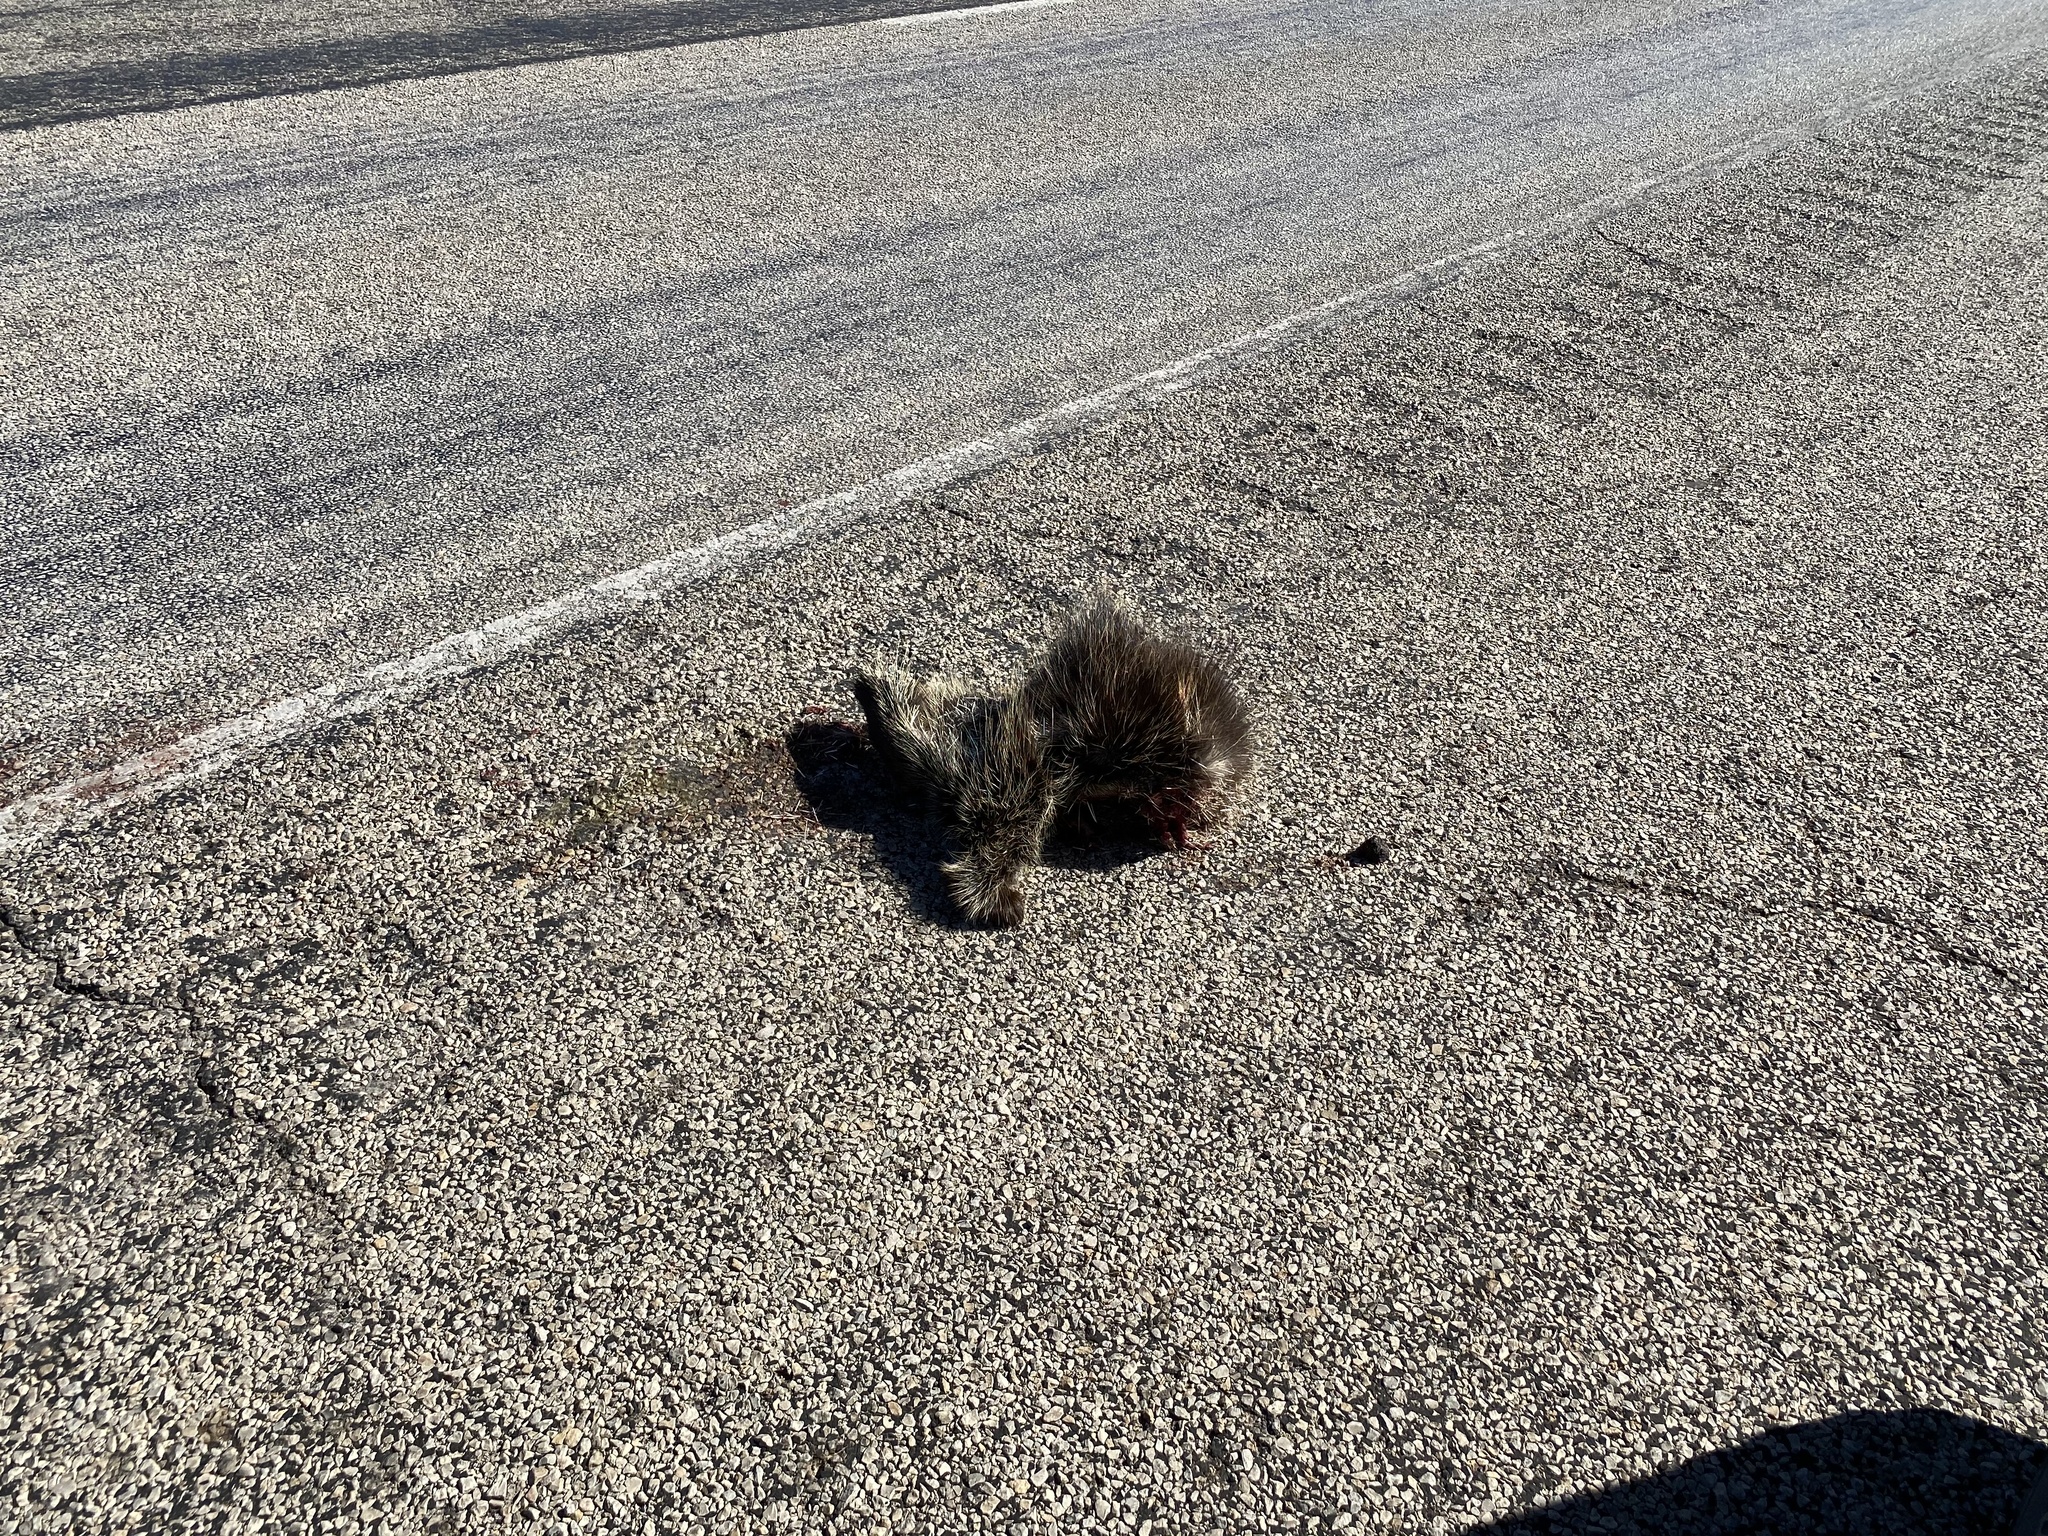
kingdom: Animalia
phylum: Chordata
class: Mammalia
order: Rodentia
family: Erethizontidae
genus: Erethizon
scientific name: Erethizon dorsatus
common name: North american porcupine
